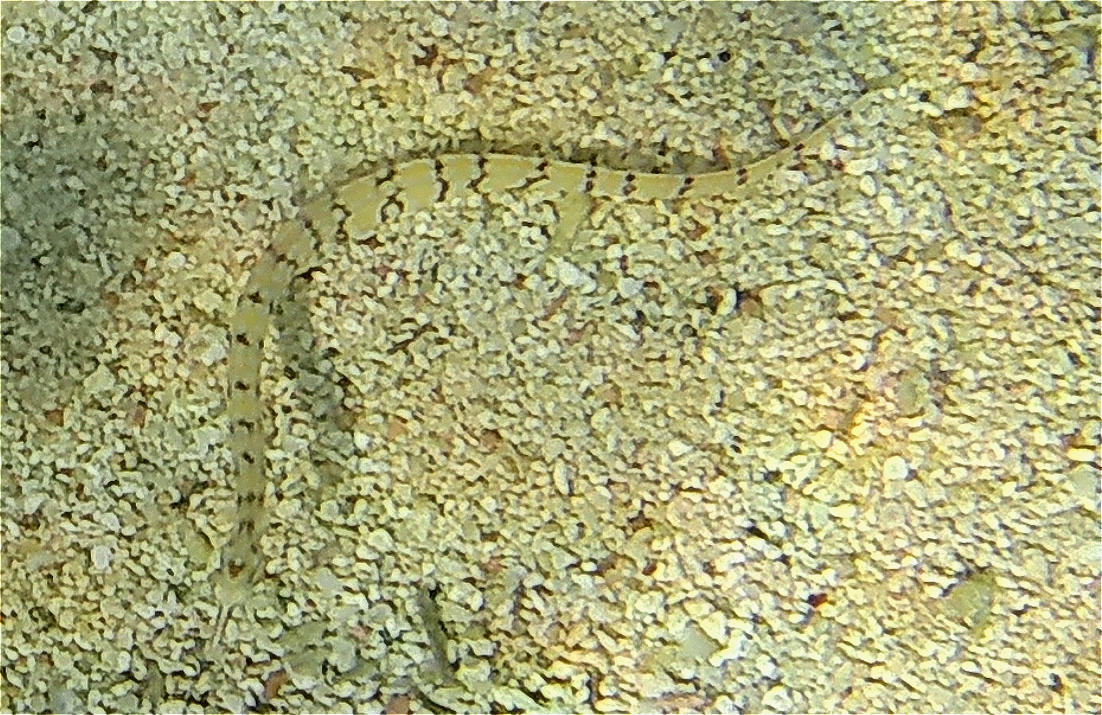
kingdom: Animalia
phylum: Chordata
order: Syngnathiformes
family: Syngnathidae
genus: Corythoichthys
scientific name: Corythoichthys flavofasciatus
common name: Banded pipefish
